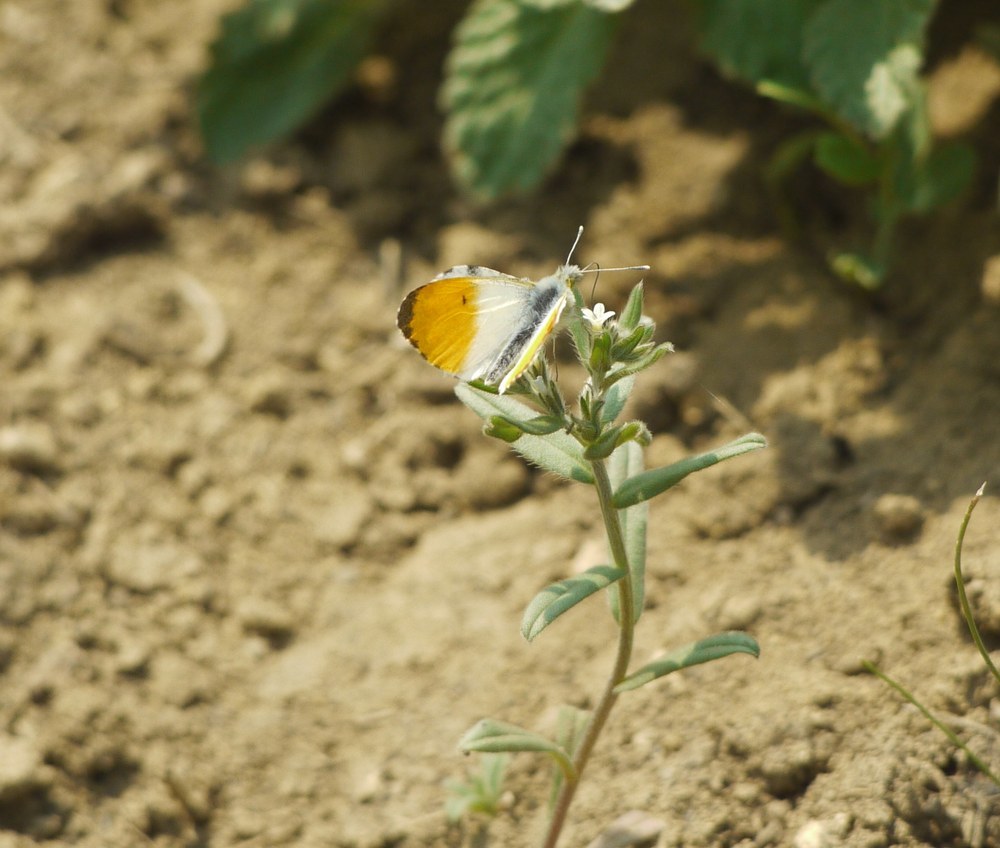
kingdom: Animalia
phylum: Arthropoda
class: Insecta
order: Lepidoptera
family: Pieridae
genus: Anthocharis
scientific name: Anthocharis cardamines
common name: Orange-tip
